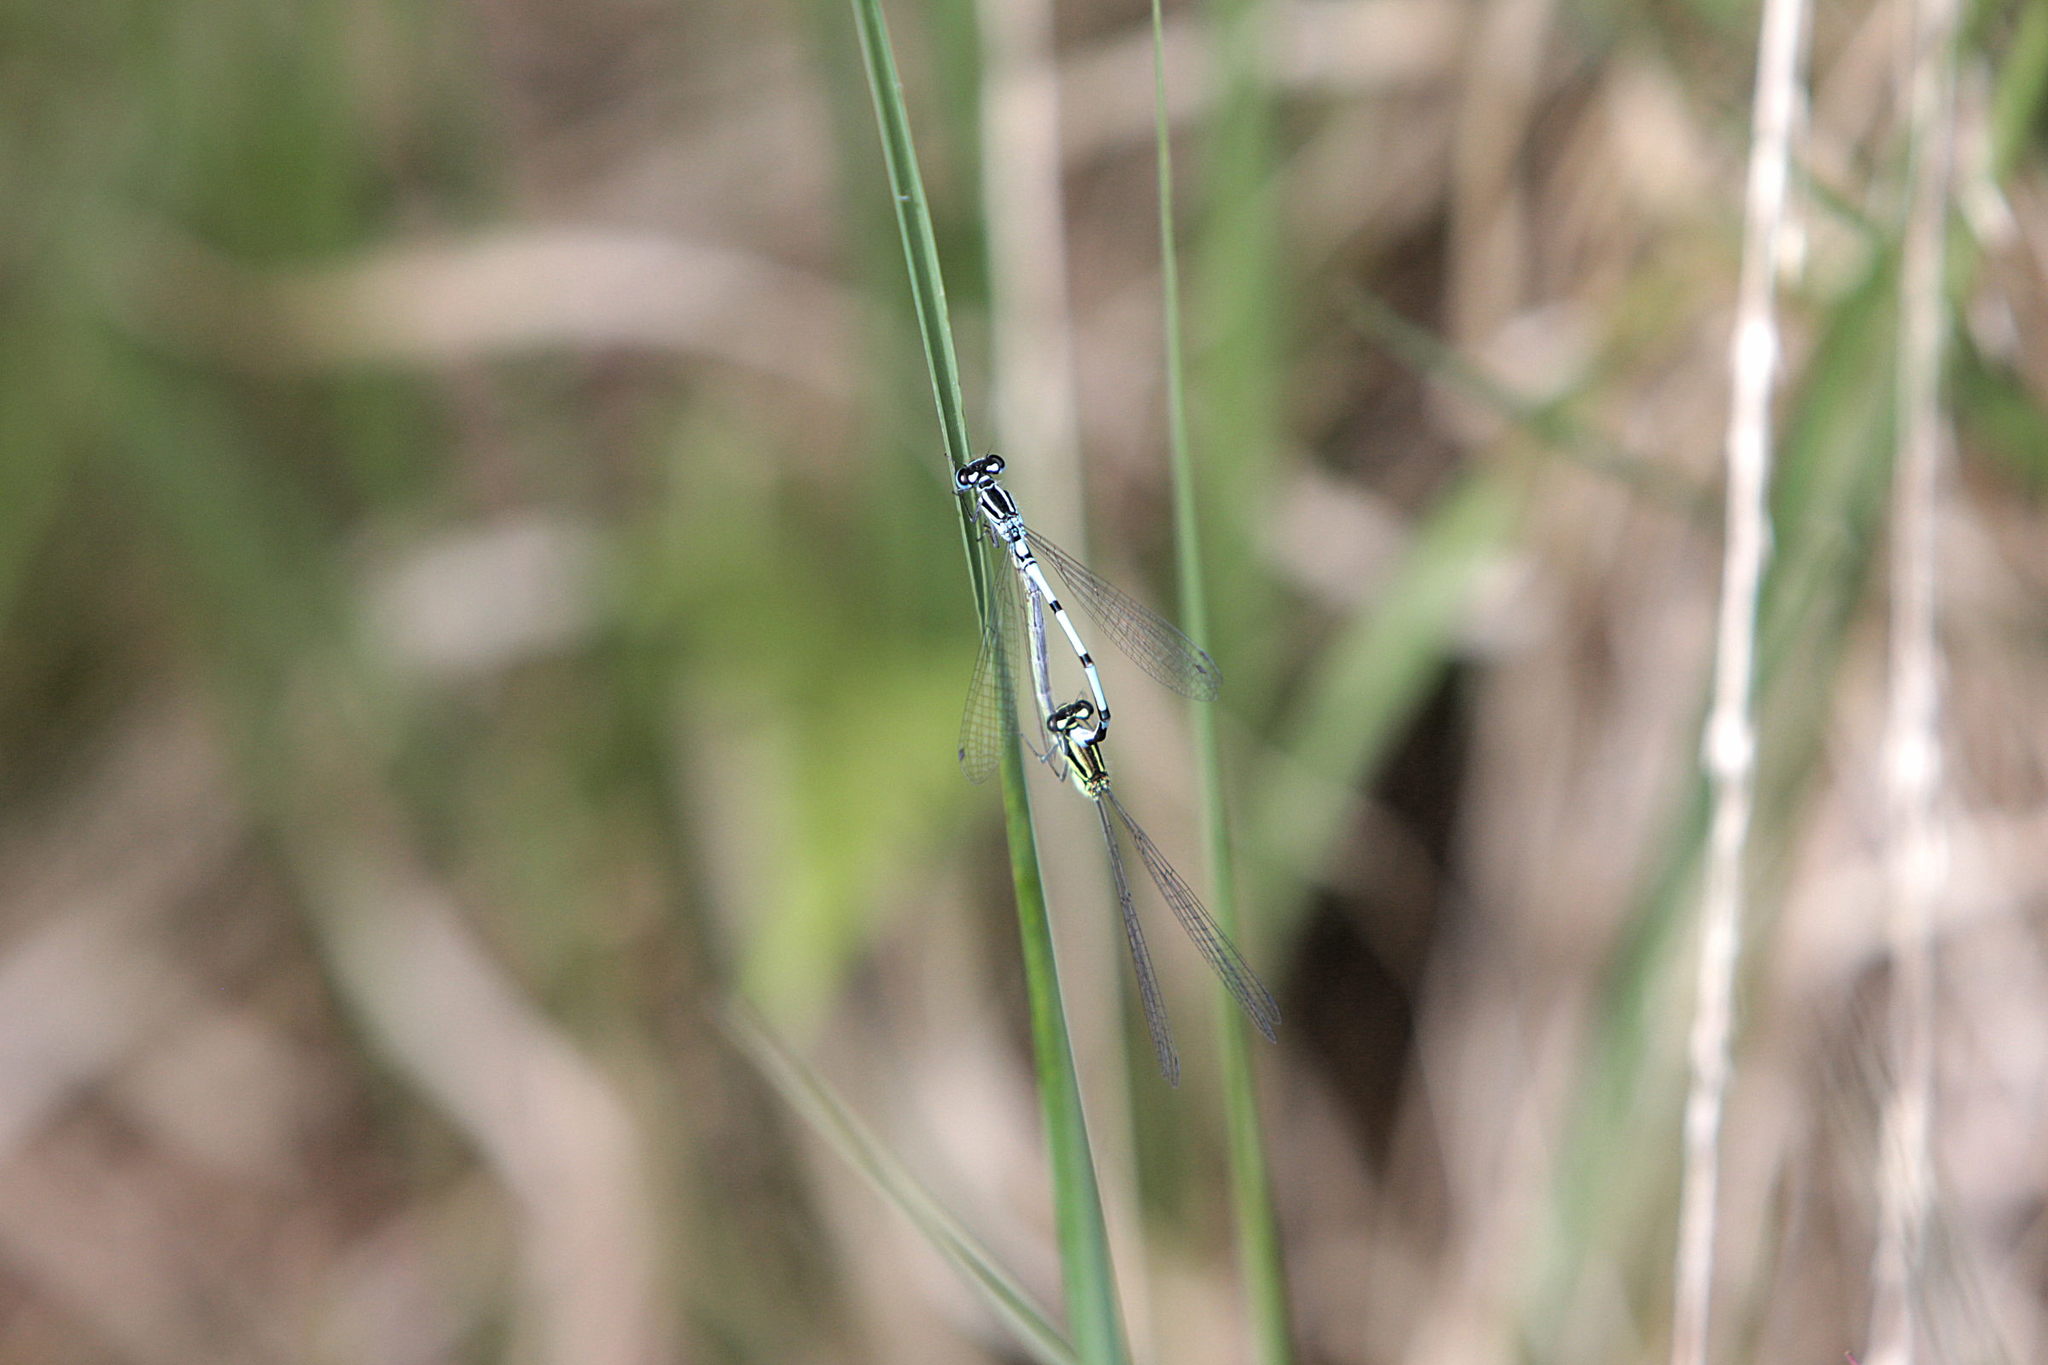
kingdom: Animalia
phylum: Arthropoda
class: Insecta
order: Odonata
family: Coenagrionidae
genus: Coenagrion
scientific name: Coenagrion puella
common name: Azure damselfly
